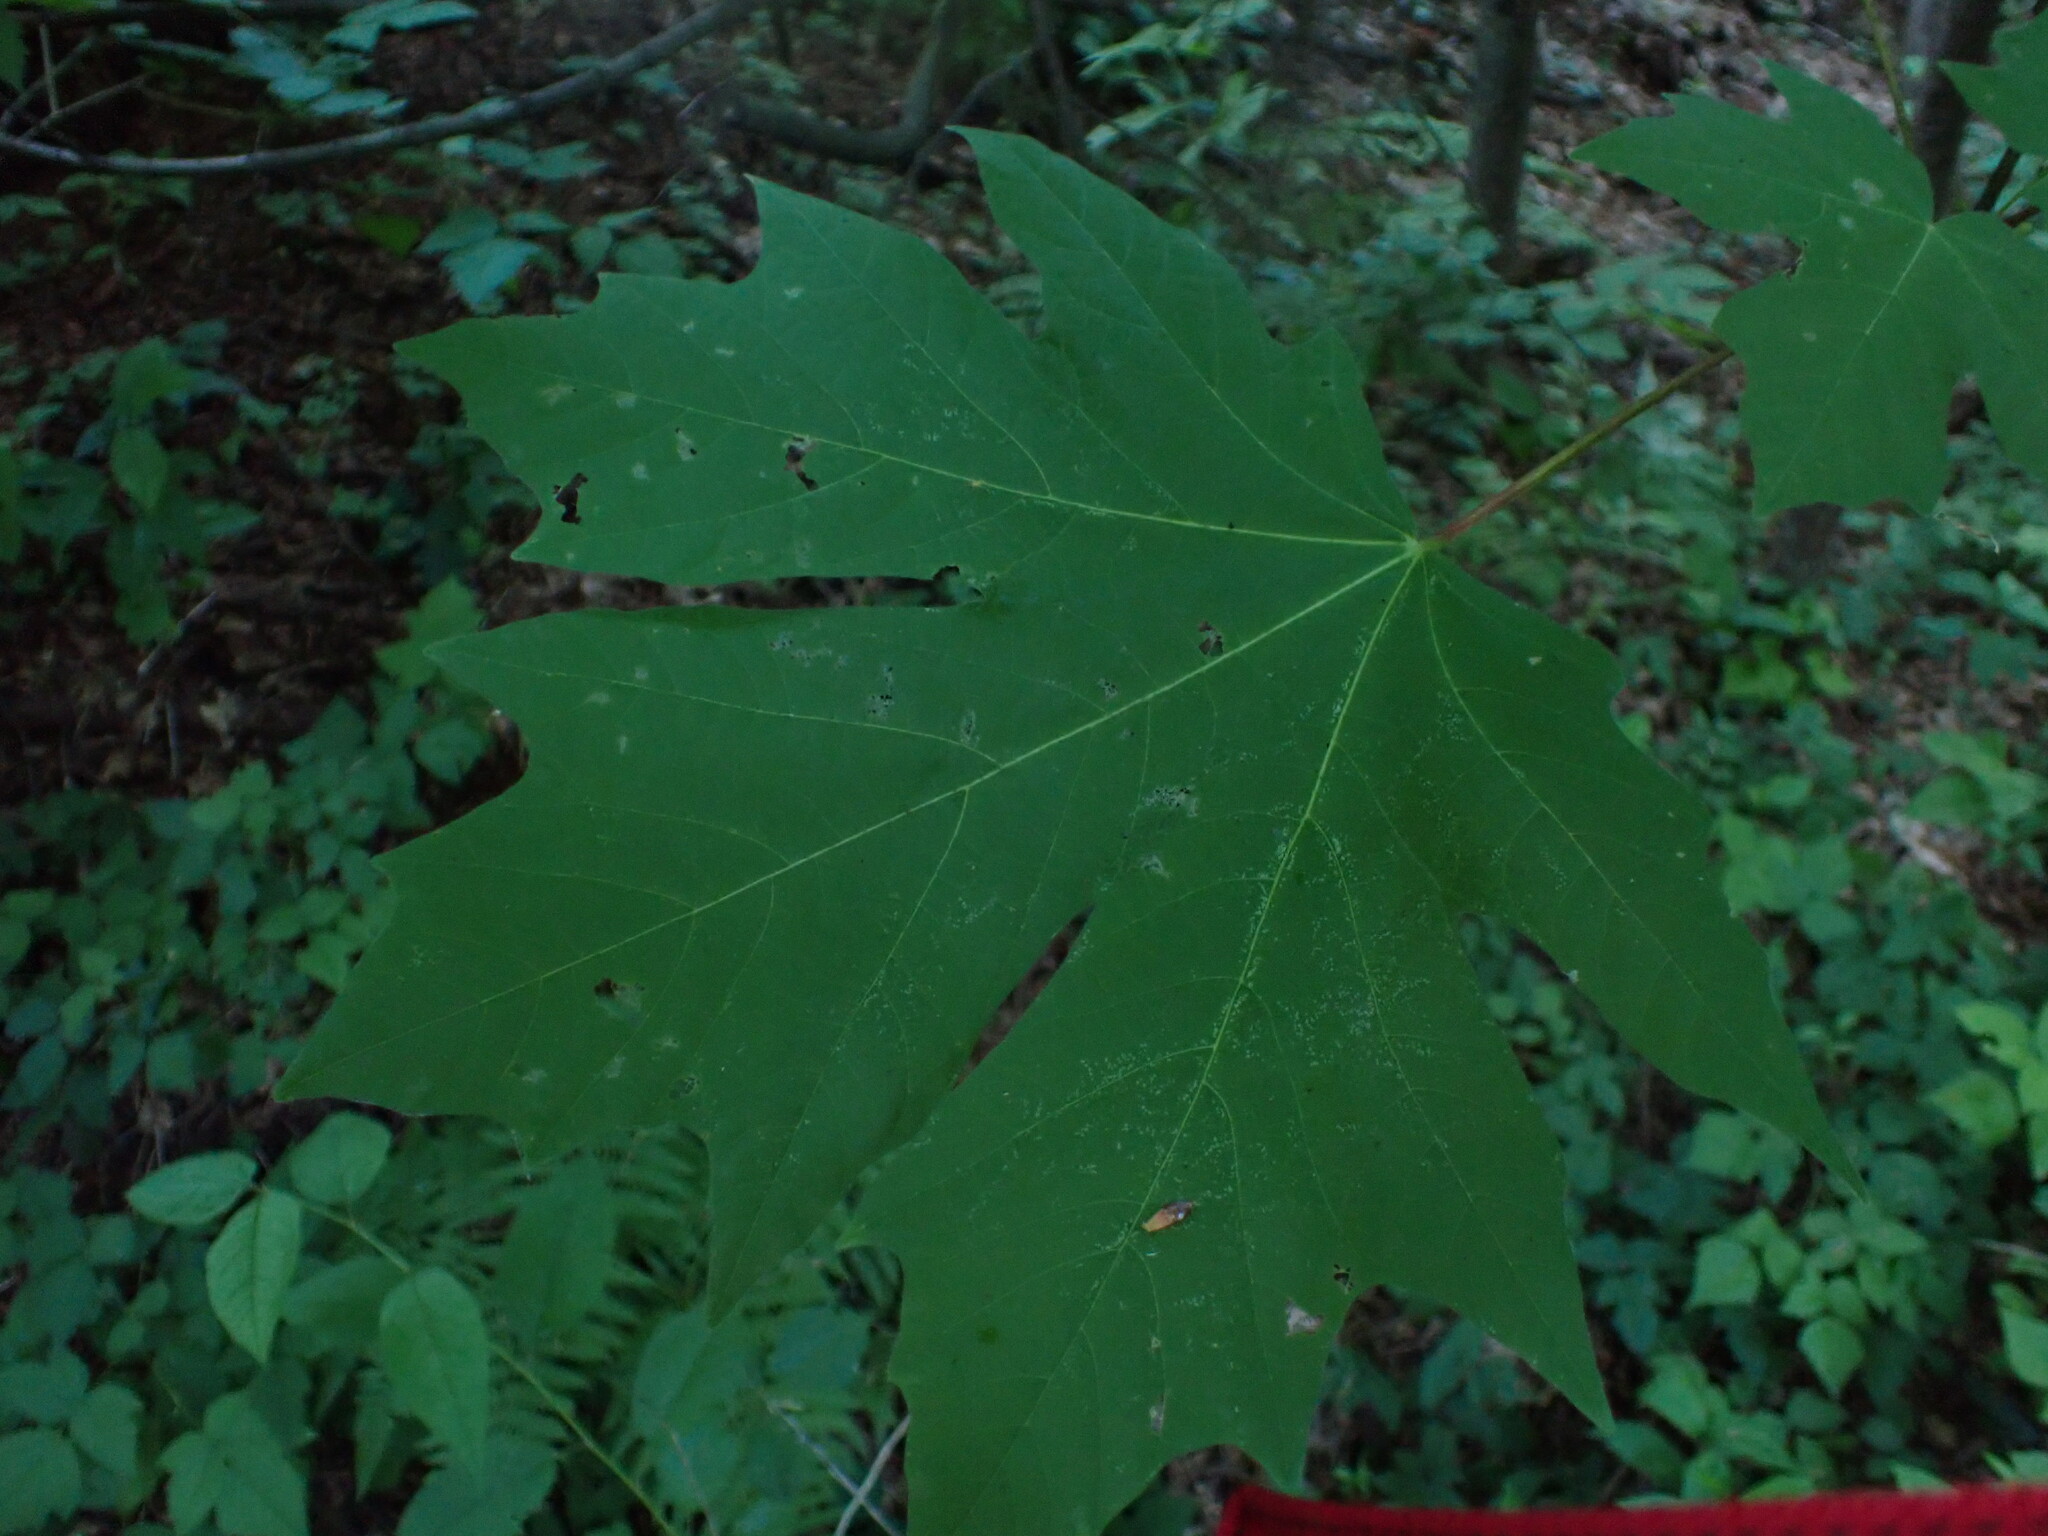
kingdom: Plantae
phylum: Tracheophyta
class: Magnoliopsida
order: Sapindales
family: Sapindaceae
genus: Acer
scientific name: Acer macrophyllum
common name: Oregon maple
